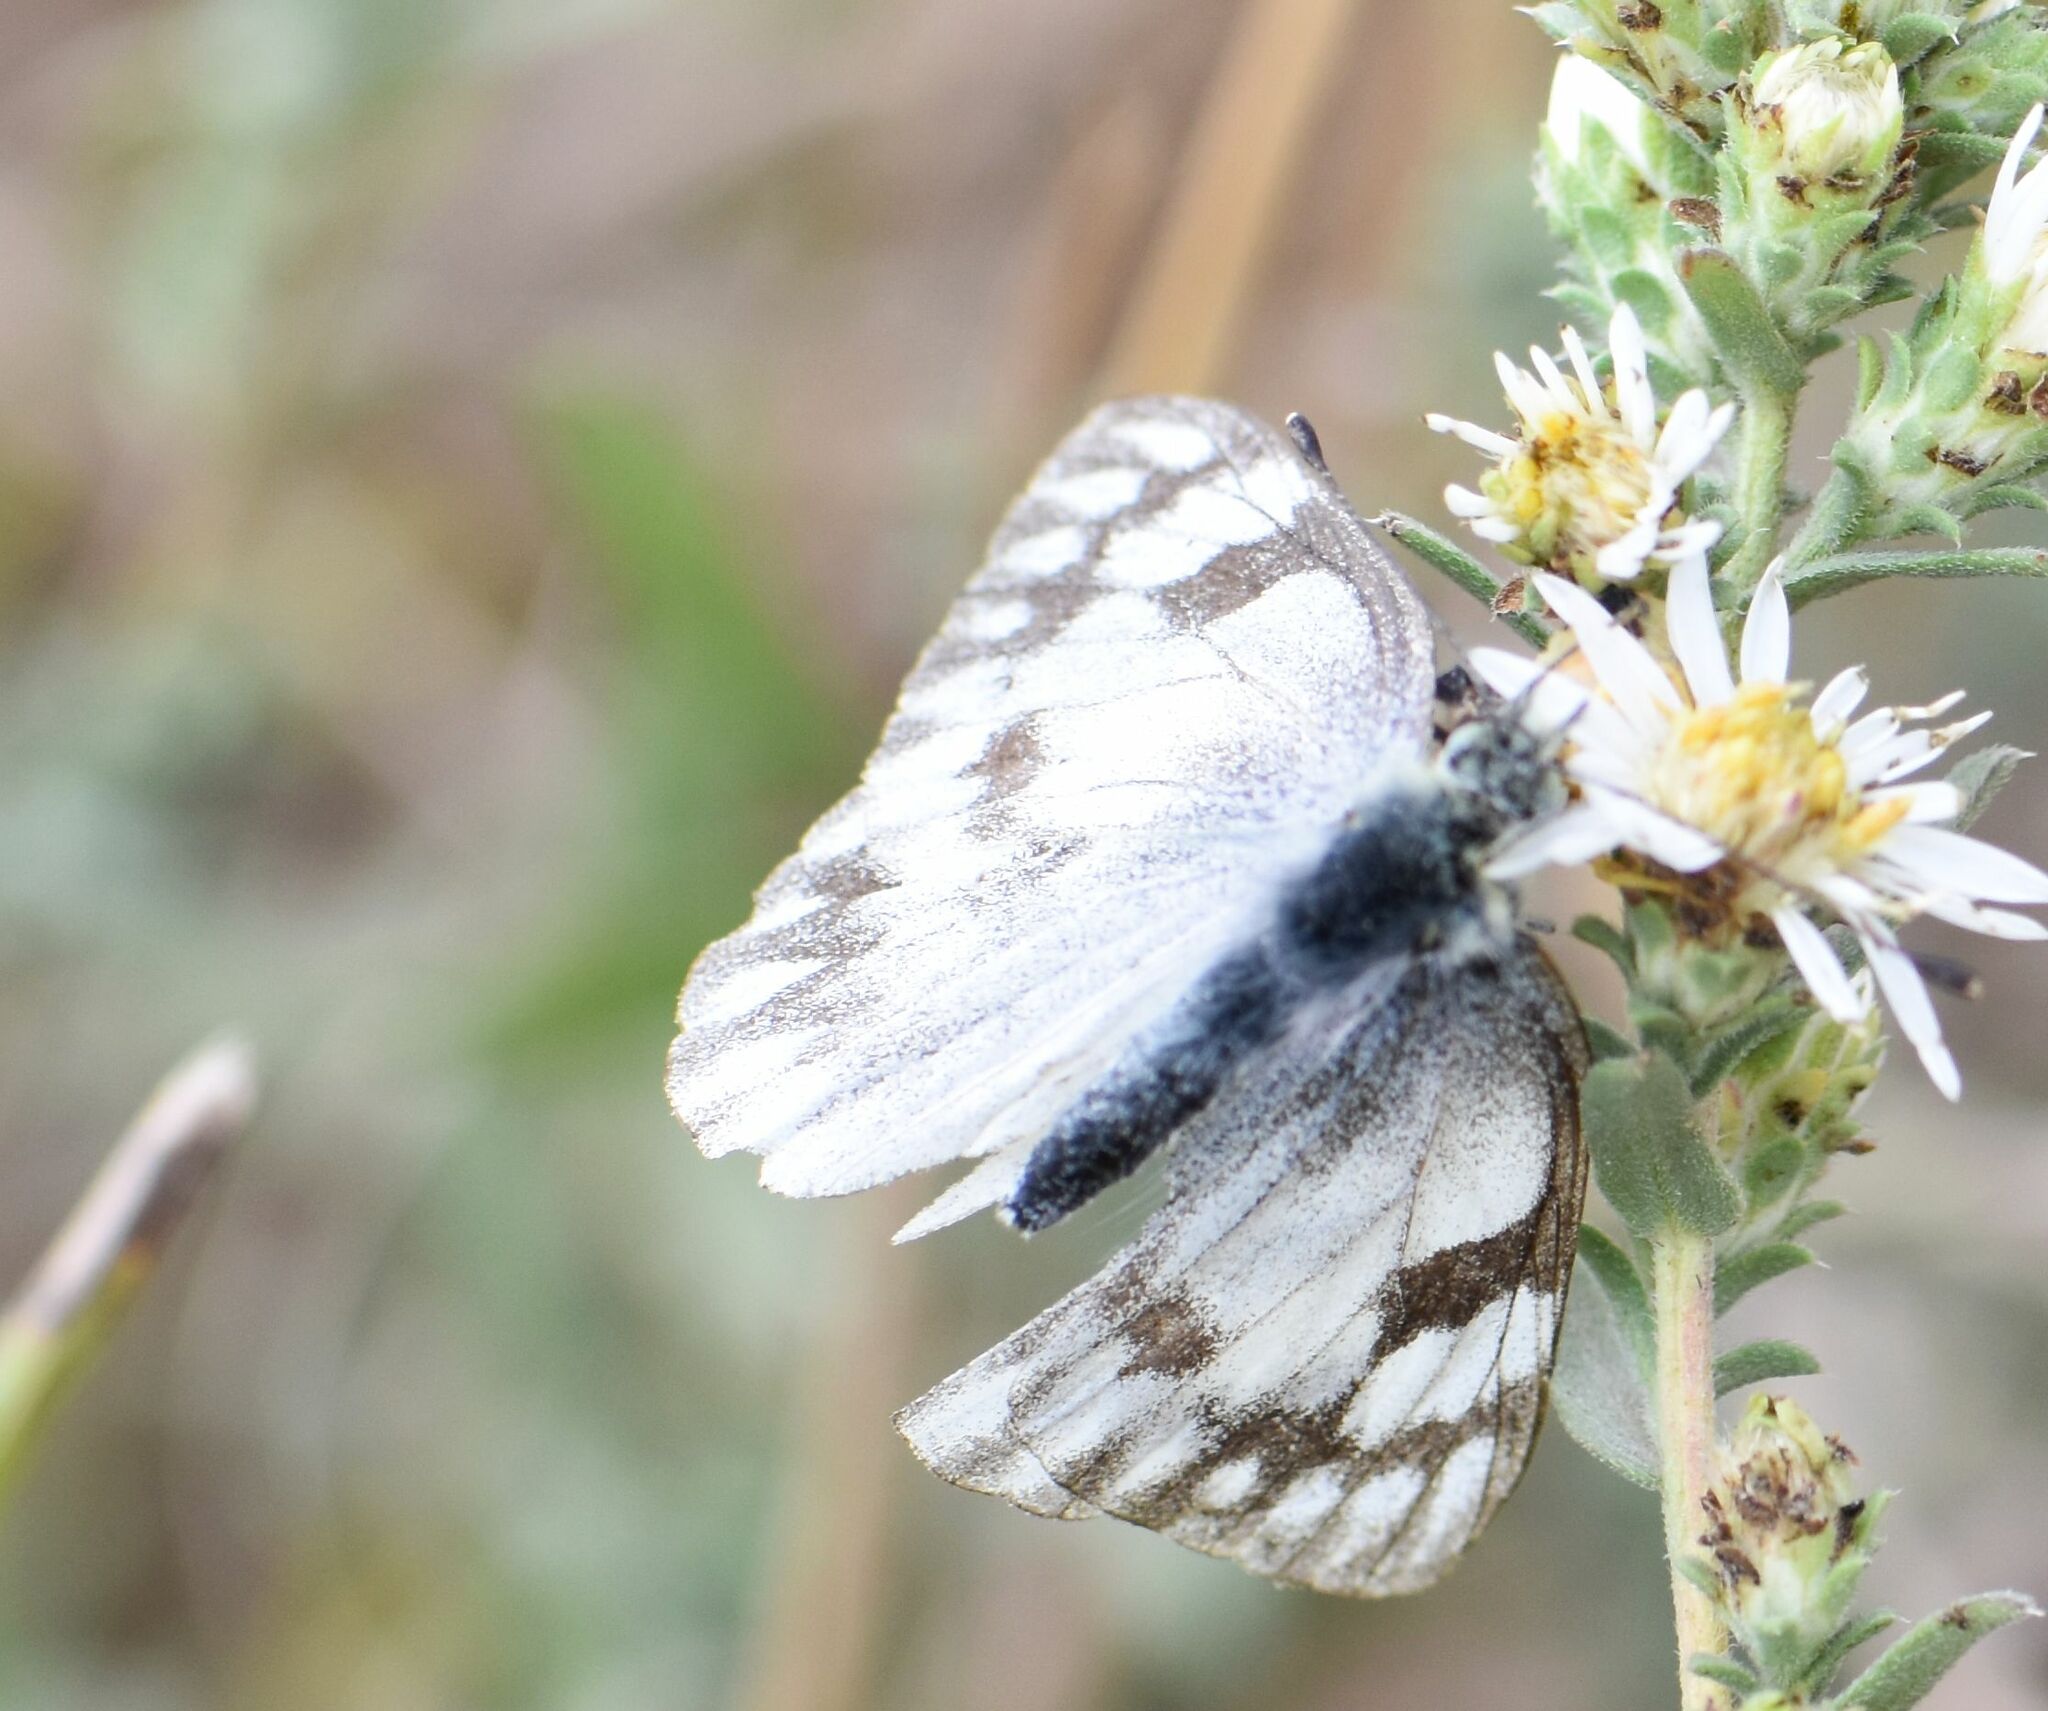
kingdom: Animalia
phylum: Arthropoda
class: Insecta
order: Lepidoptera
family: Pieridae
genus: Pontia
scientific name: Pontia occidentalis
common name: Western white
